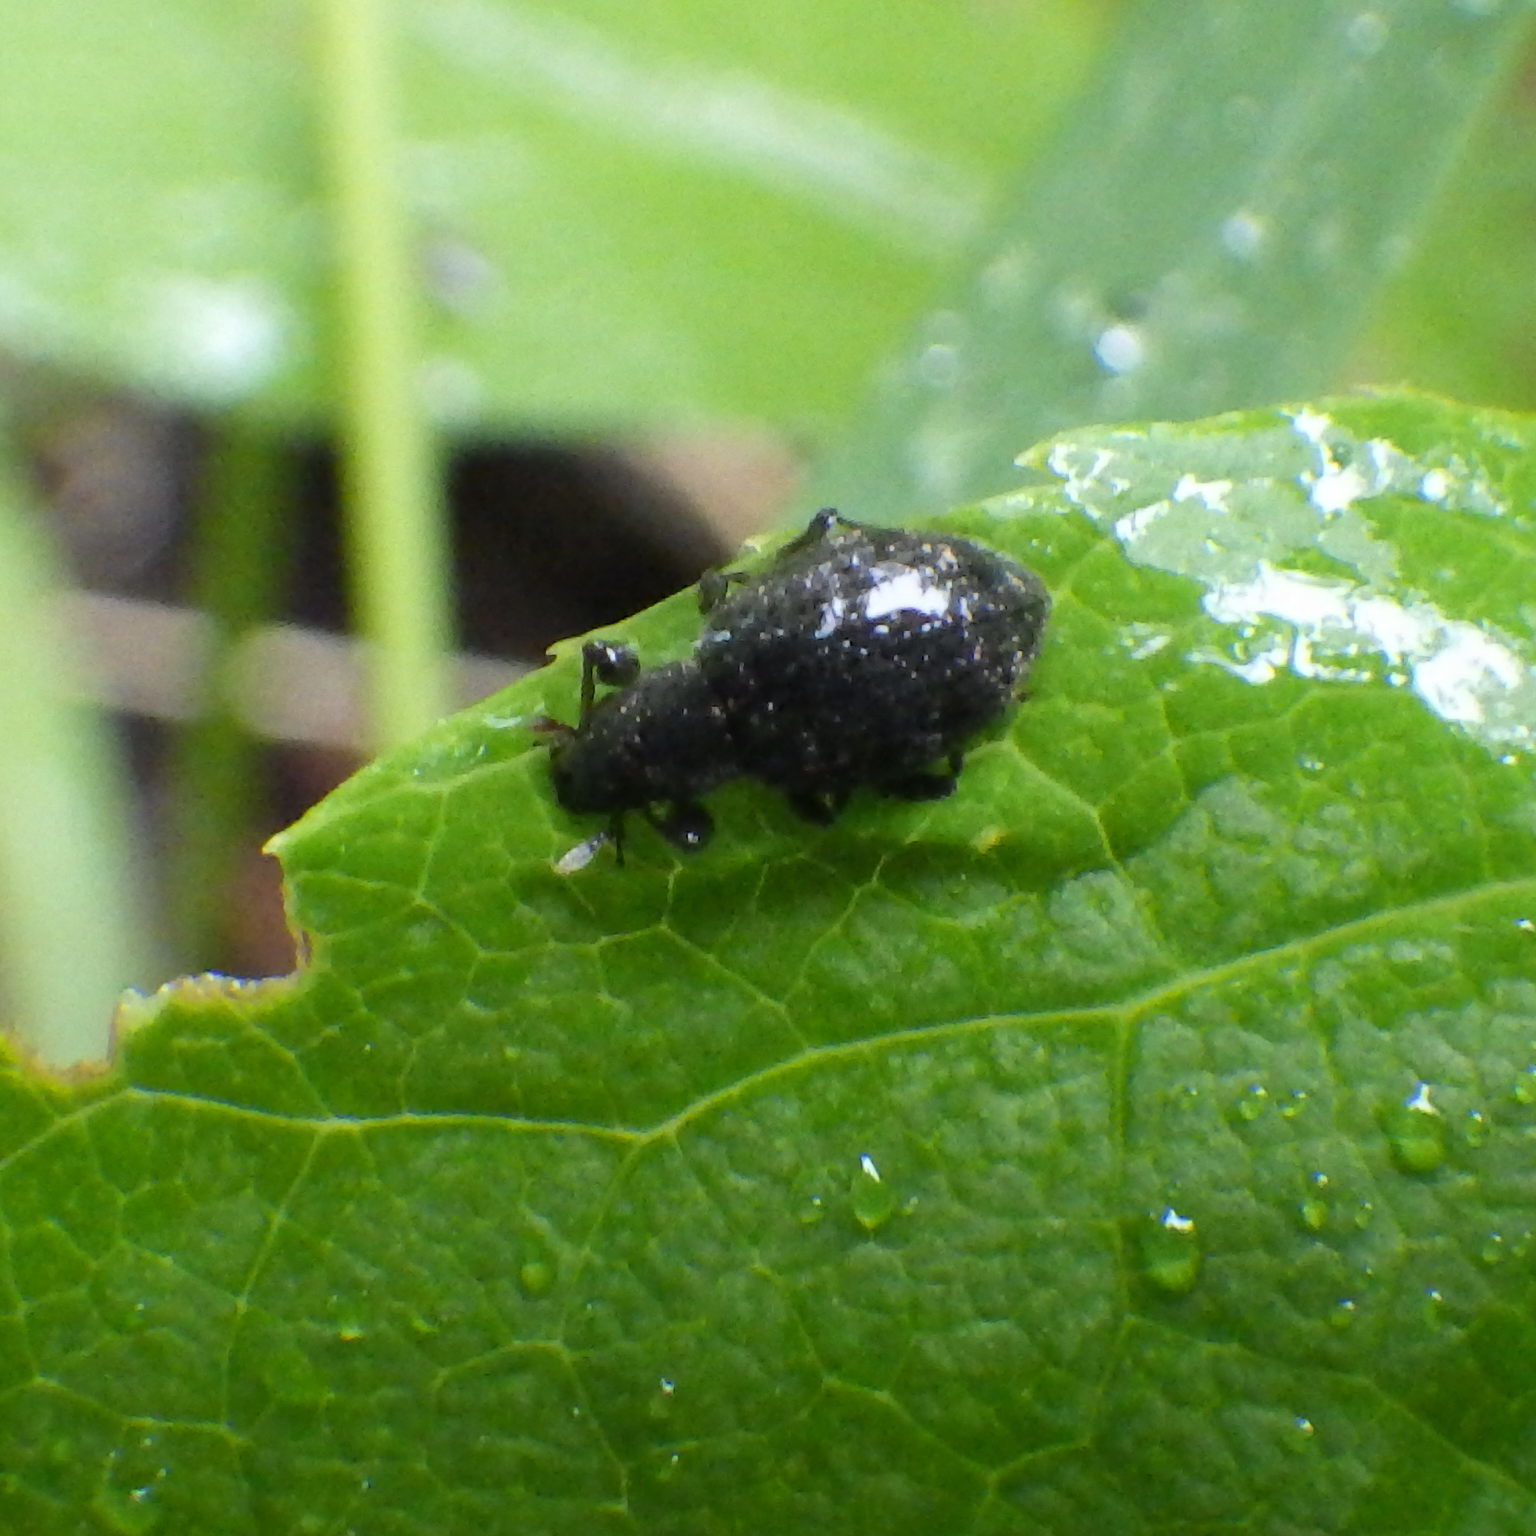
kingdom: Animalia
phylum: Arthropoda
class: Insecta
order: Coleoptera
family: Curculionidae
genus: Sciaphilus
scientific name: Sciaphilus asperatus
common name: Weevil
